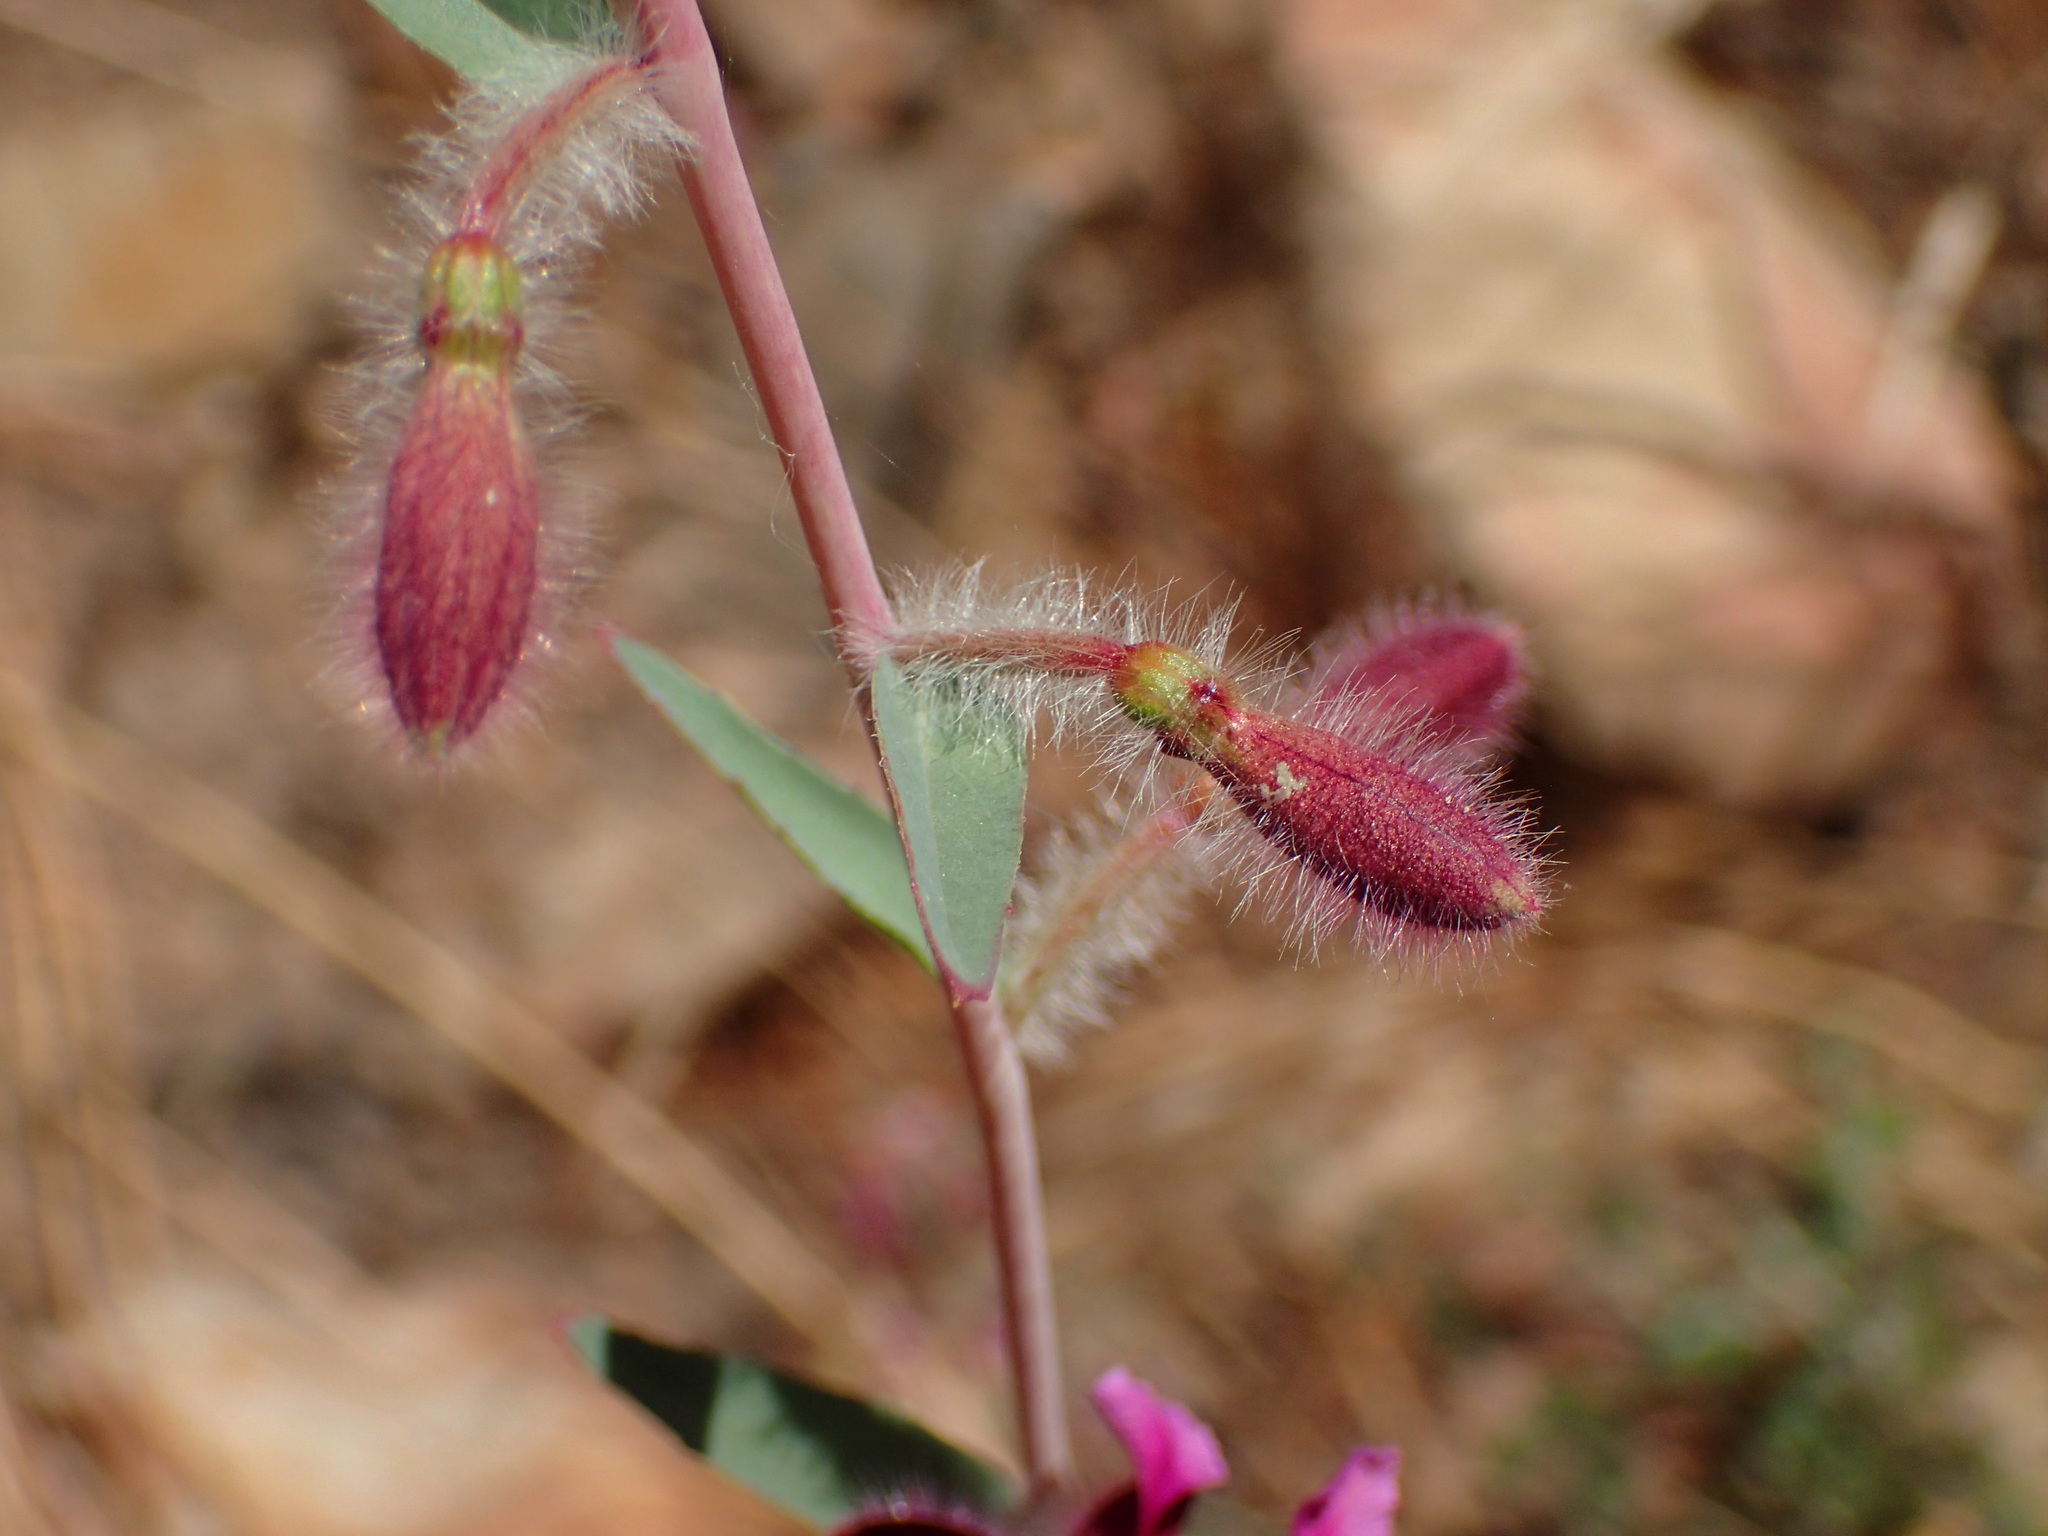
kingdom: Plantae
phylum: Tracheophyta
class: Magnoliopsida
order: Myrtales
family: Onagraceae
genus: Clarkia
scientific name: Clarkia unguiculata
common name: Clarkia
